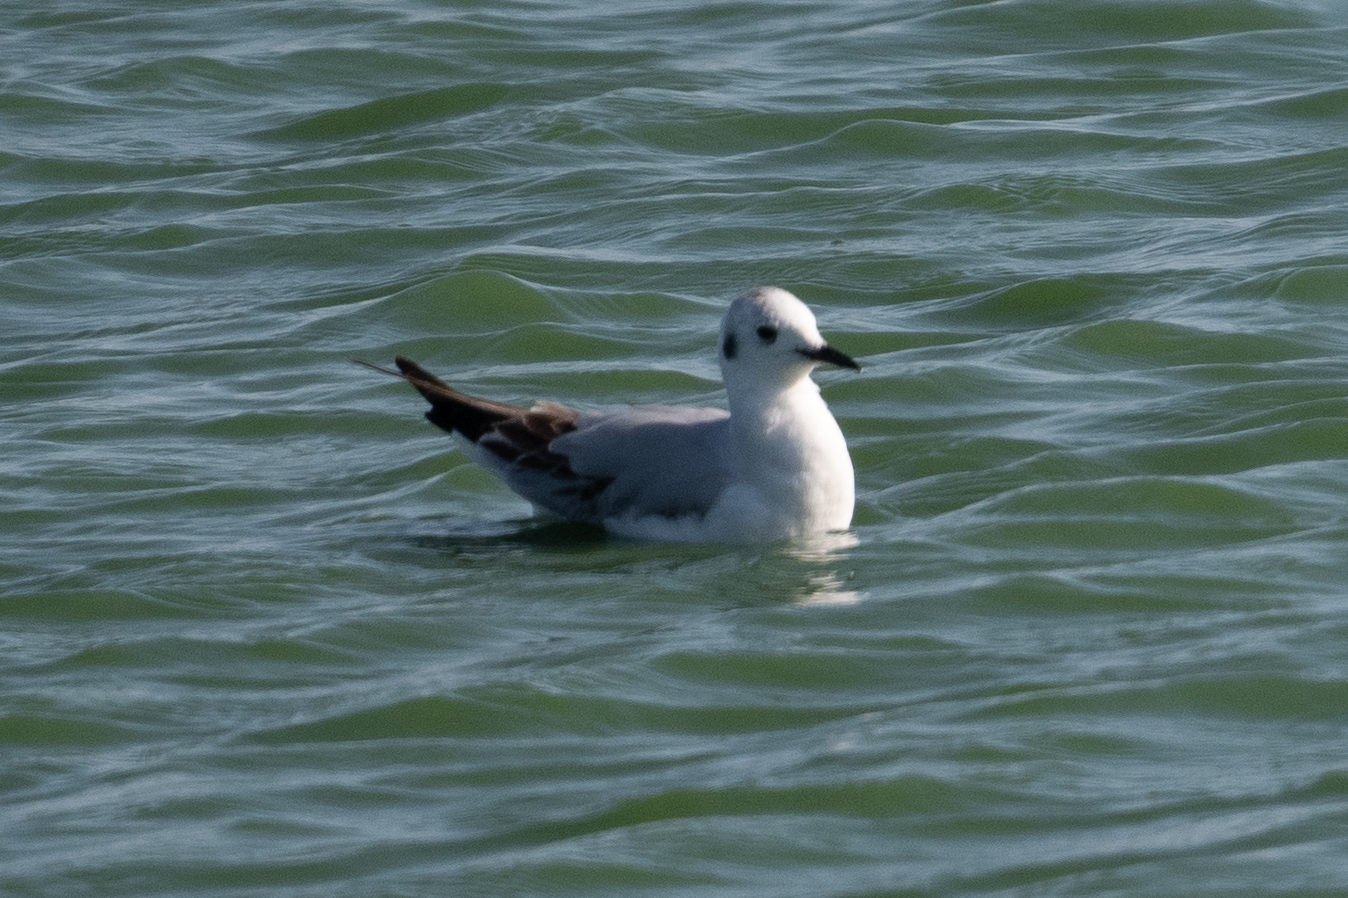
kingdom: Animalia
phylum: Chordata
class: Aves
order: Charadriiformes
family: Laridae
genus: Chroicocephalus
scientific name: Chroicocephalus philadelphia
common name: Bonaparte's gull
